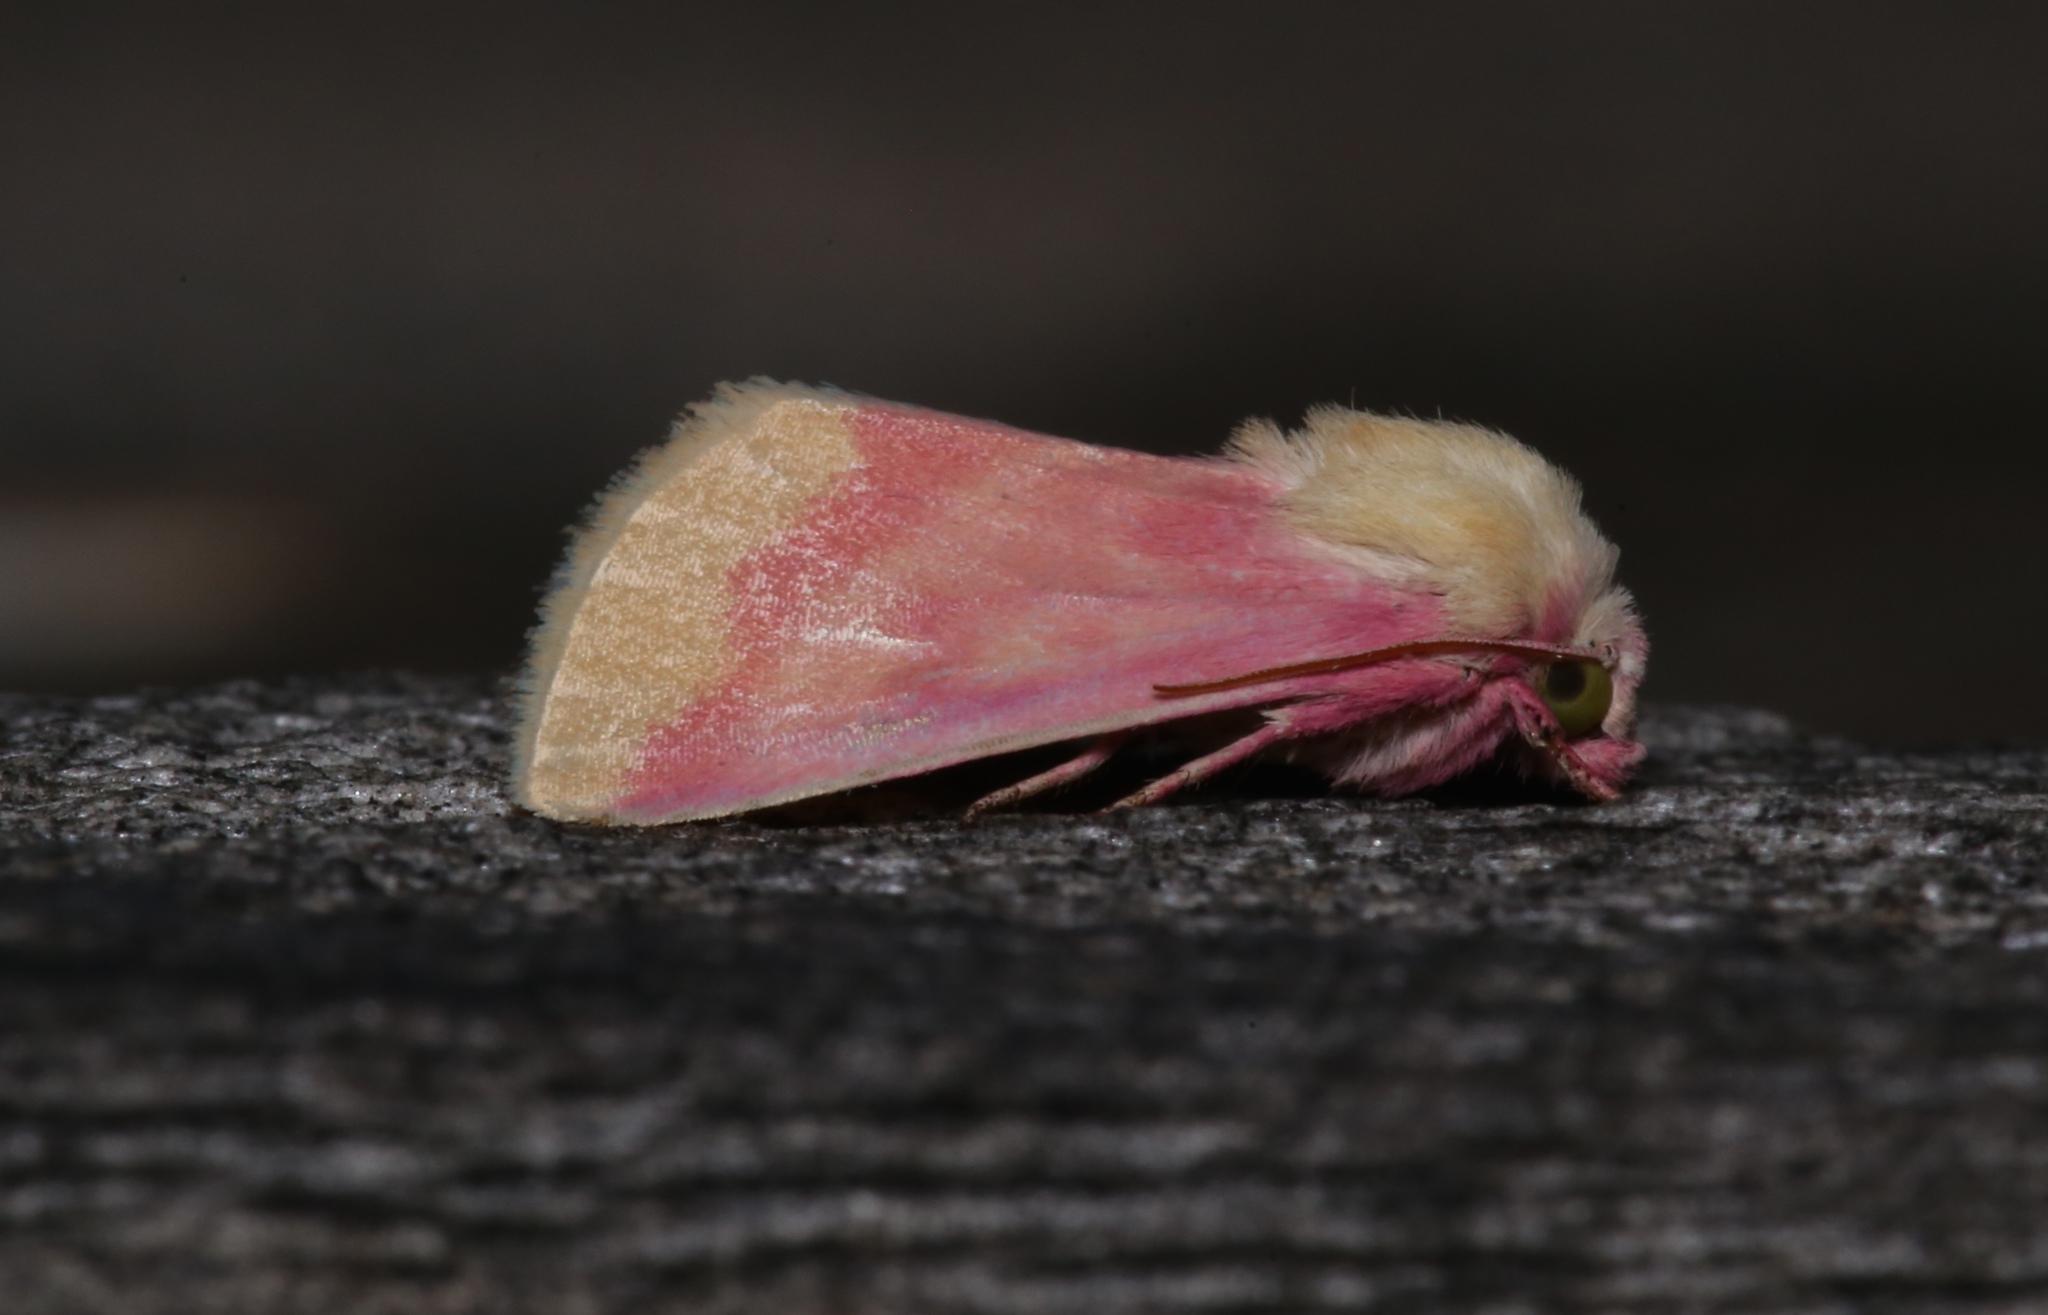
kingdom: Animalia
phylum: Arthropoda
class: Insecta
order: Lepidoptera
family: Noctuidae
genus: Schinia
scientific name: Schinia florida
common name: Primrose moth
